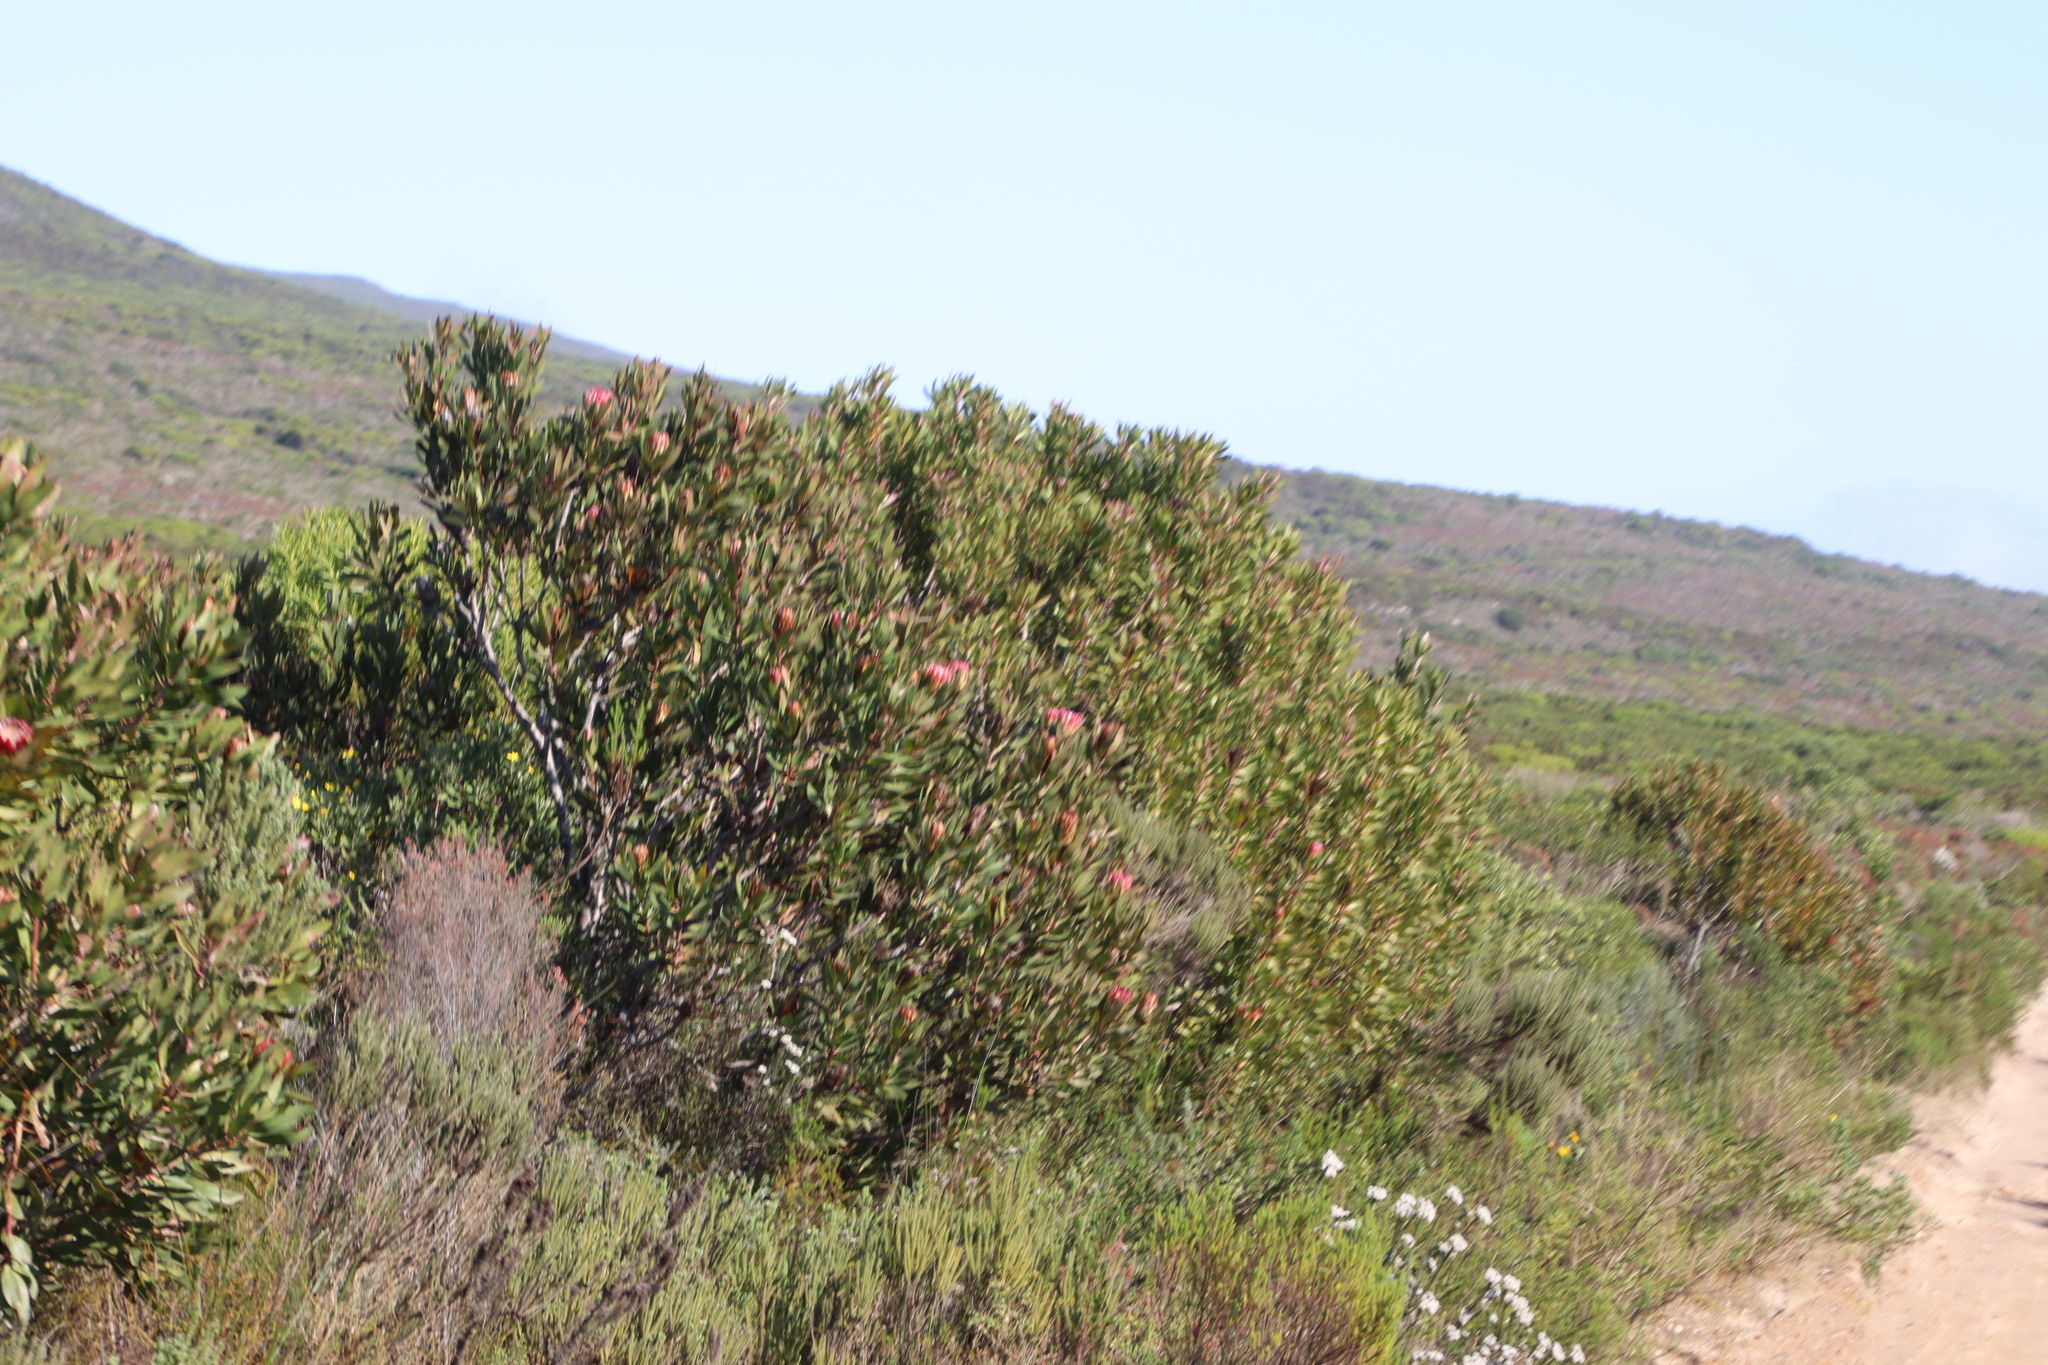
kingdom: Plantae
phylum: Tracheophyta
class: Magnoliopsida
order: Proteales
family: Proteaceae
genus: Protea
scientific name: Protea obtusifolia
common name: Bredasdorp sugarbush
